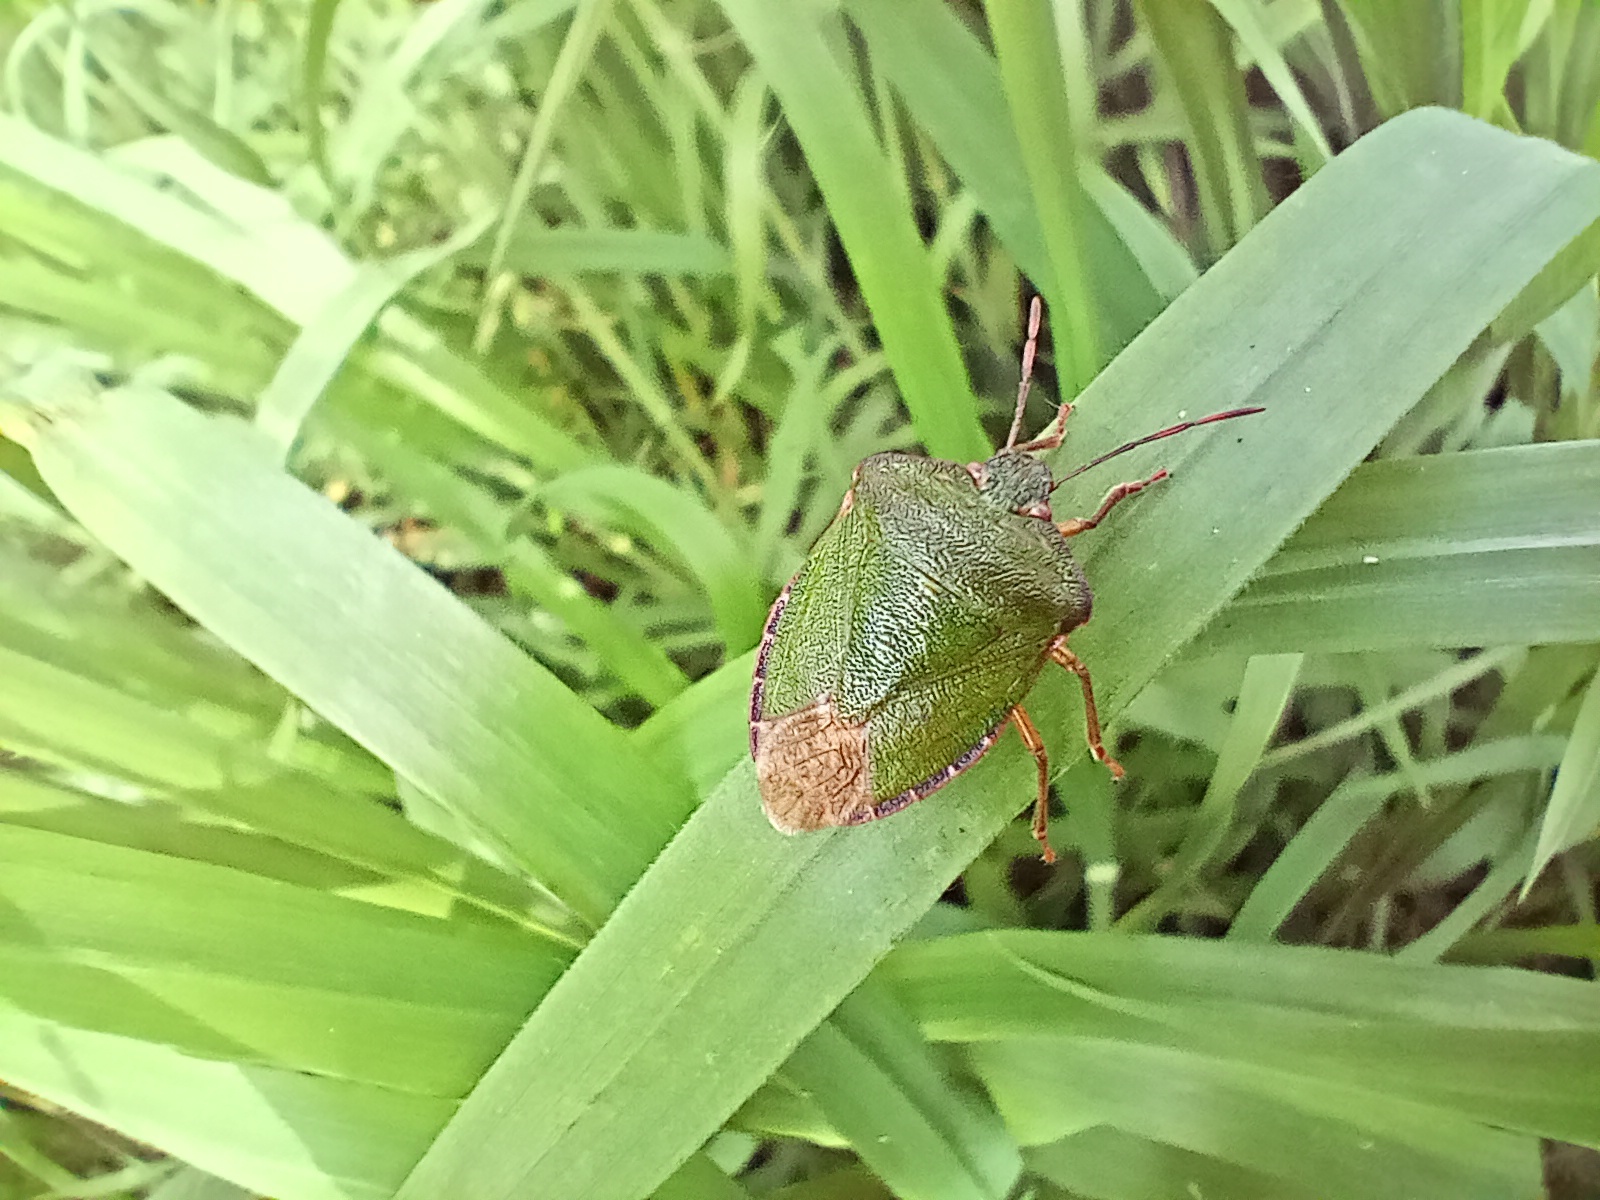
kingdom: Animalia
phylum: Arthropoda
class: Insecta
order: Hemiptera
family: Pentatomidae
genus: Palomena
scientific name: Palomena prasina
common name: Green shieldbug
